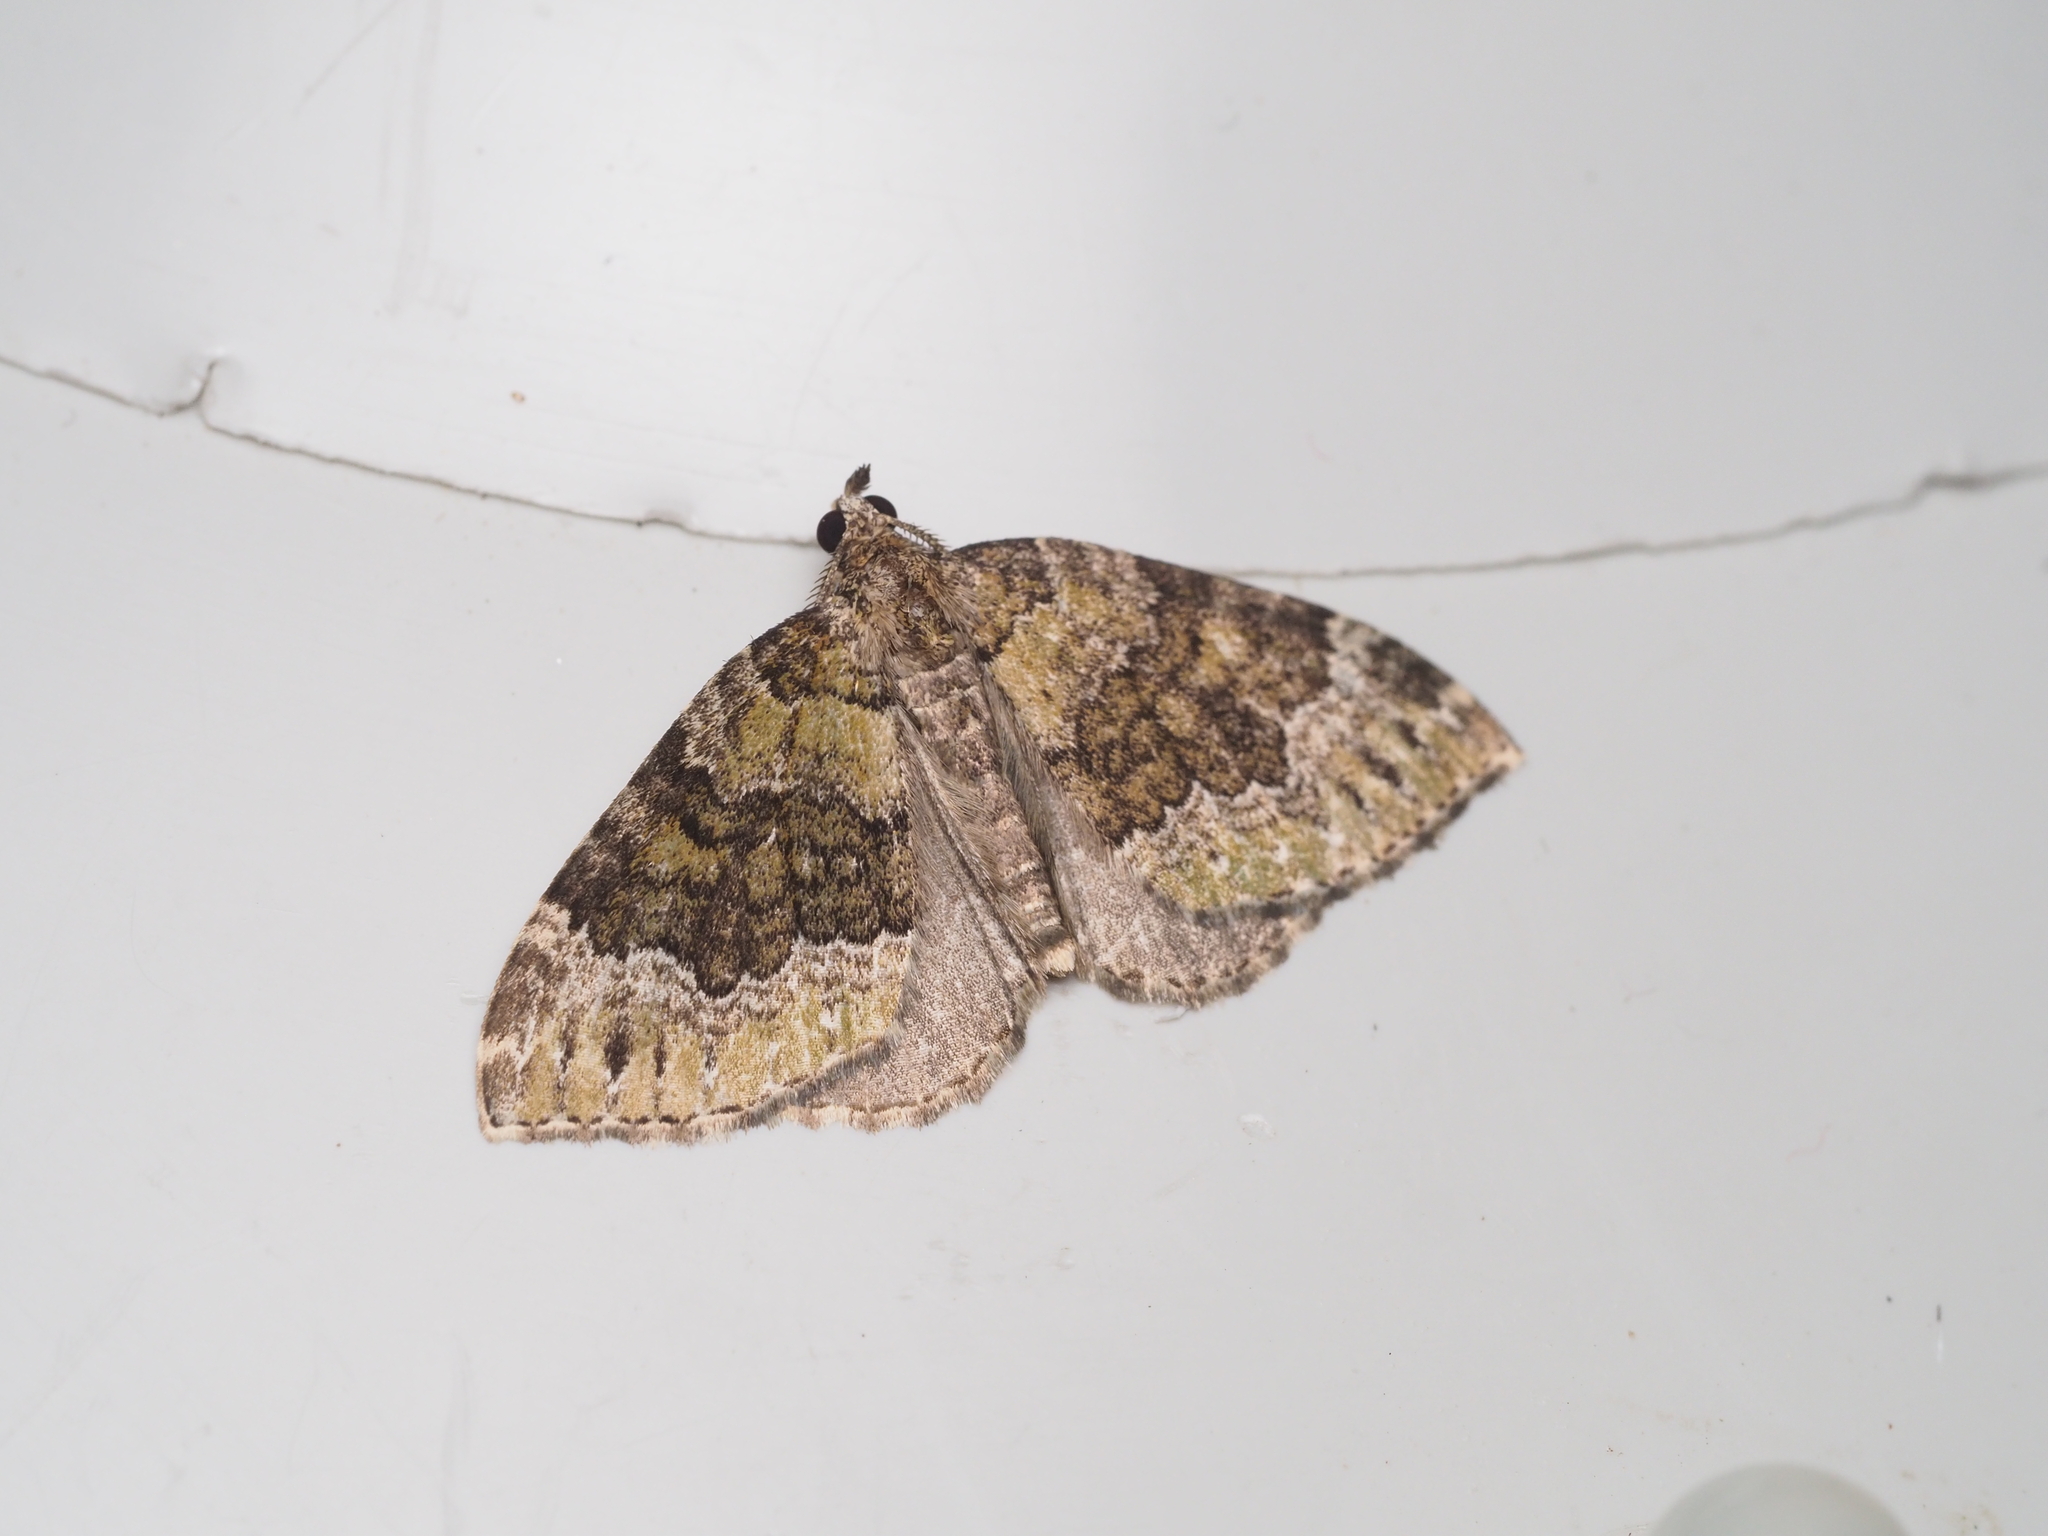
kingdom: Animalia
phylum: Arthropoda
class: Insecta
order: Lepidoptera
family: Geometridae
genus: Colostygia
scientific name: Colostygia olivata
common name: Beech-green carpet
